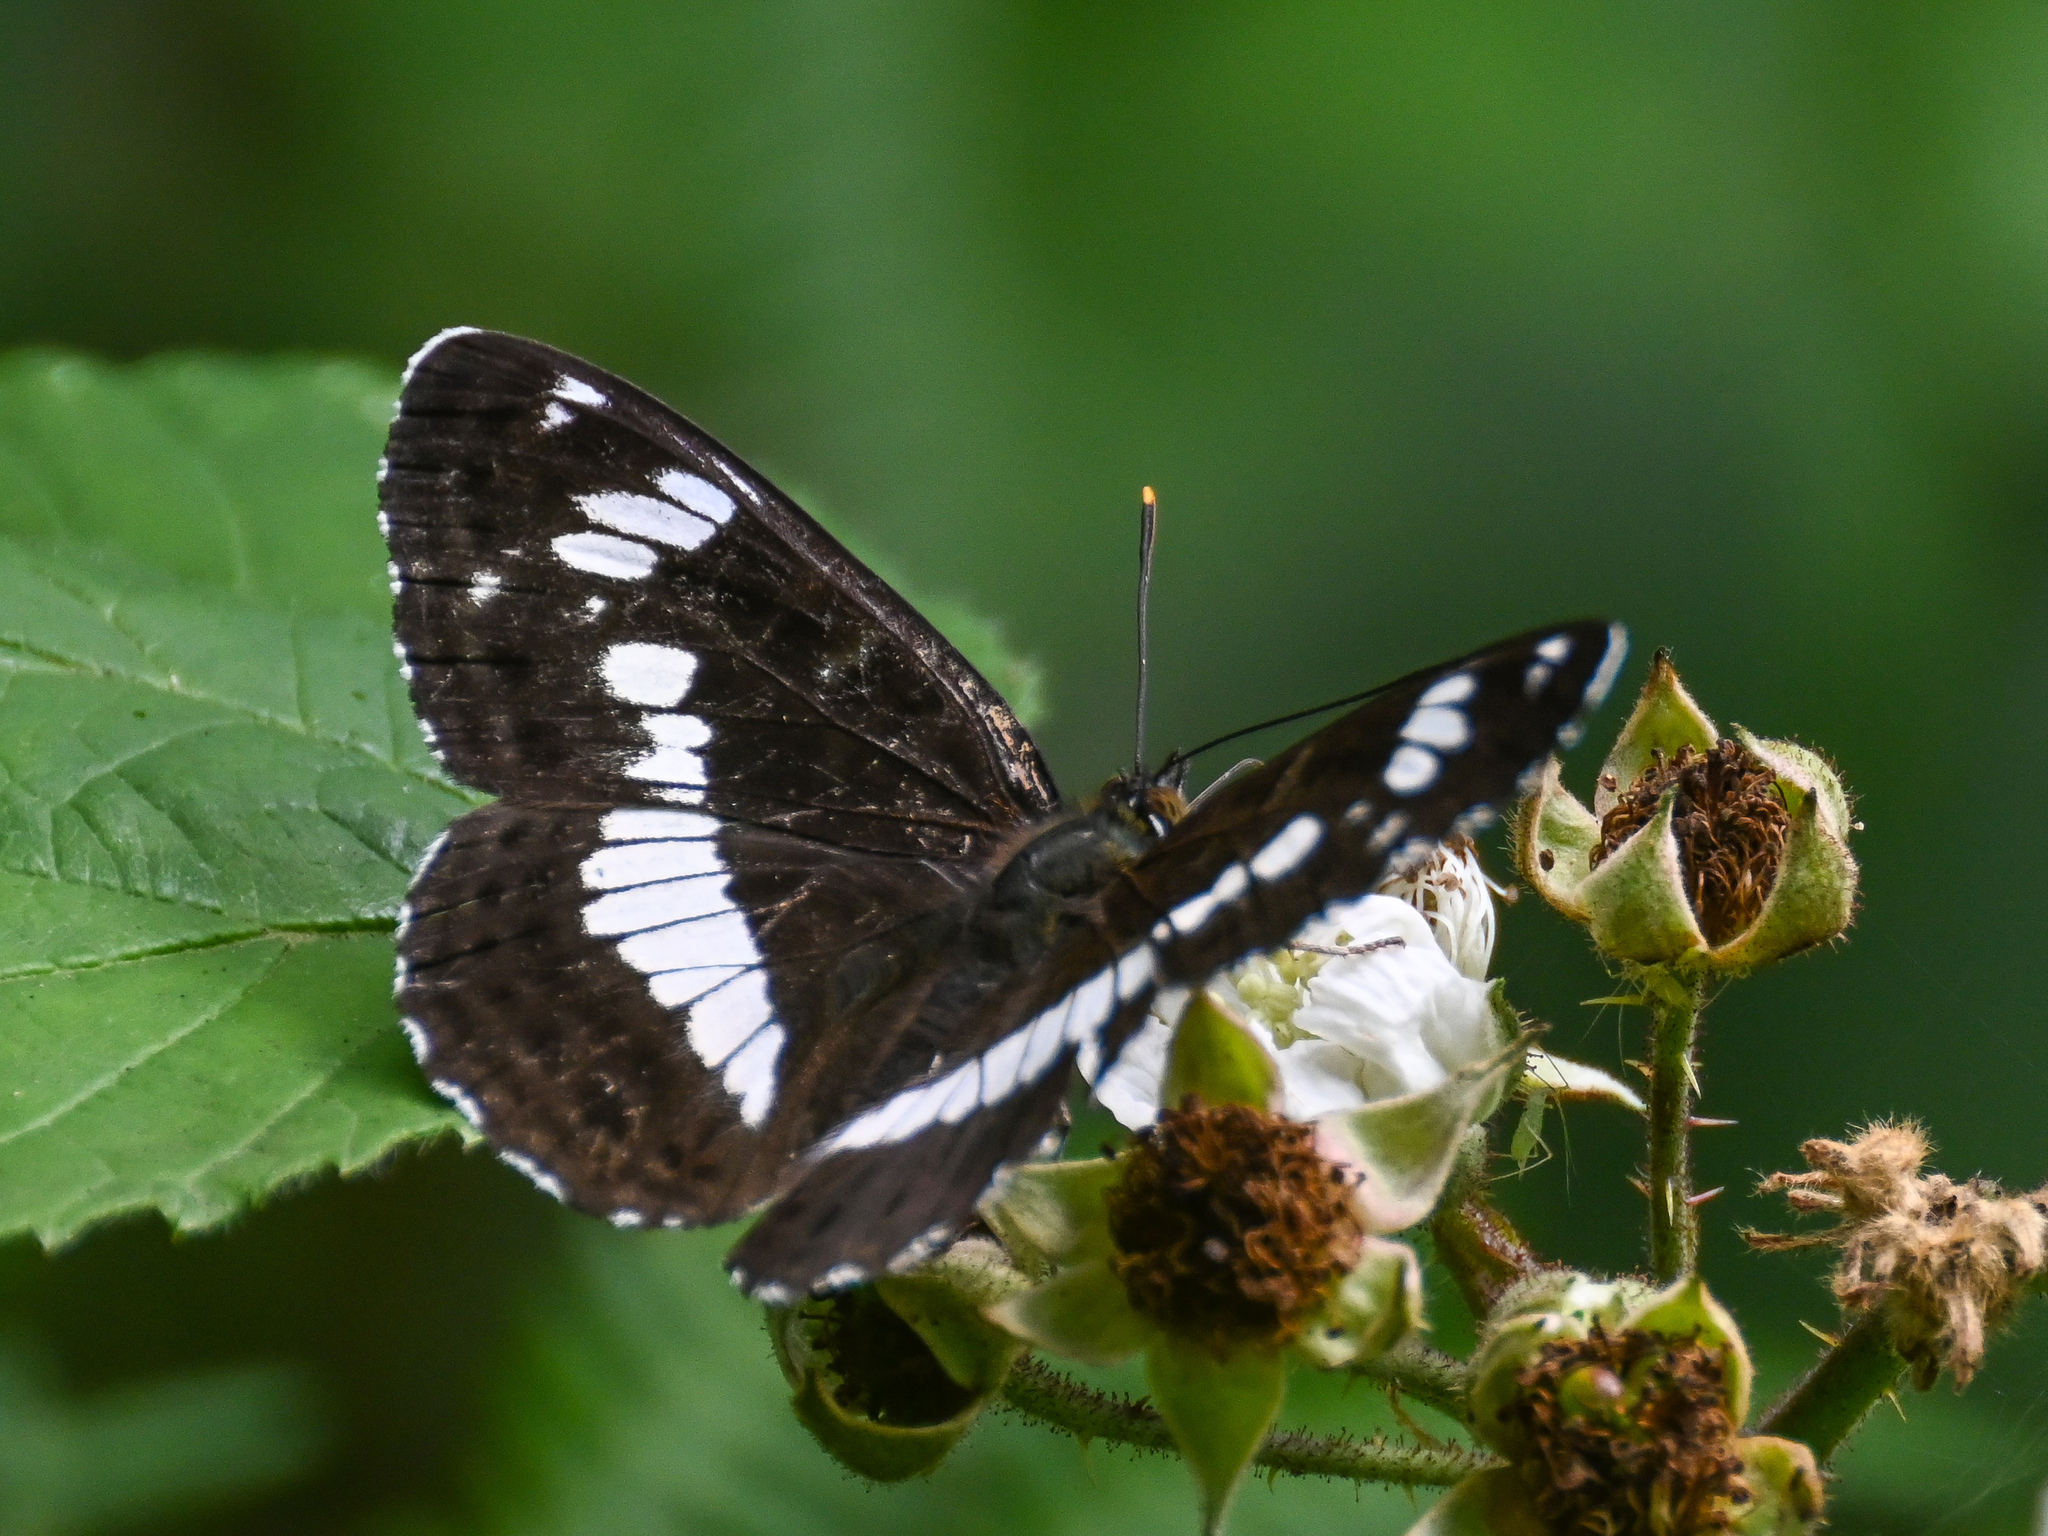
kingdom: Animalia
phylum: Arthropoda
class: Insecta
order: Lepidoptera
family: Nymphalidae
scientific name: Nymphalidae
